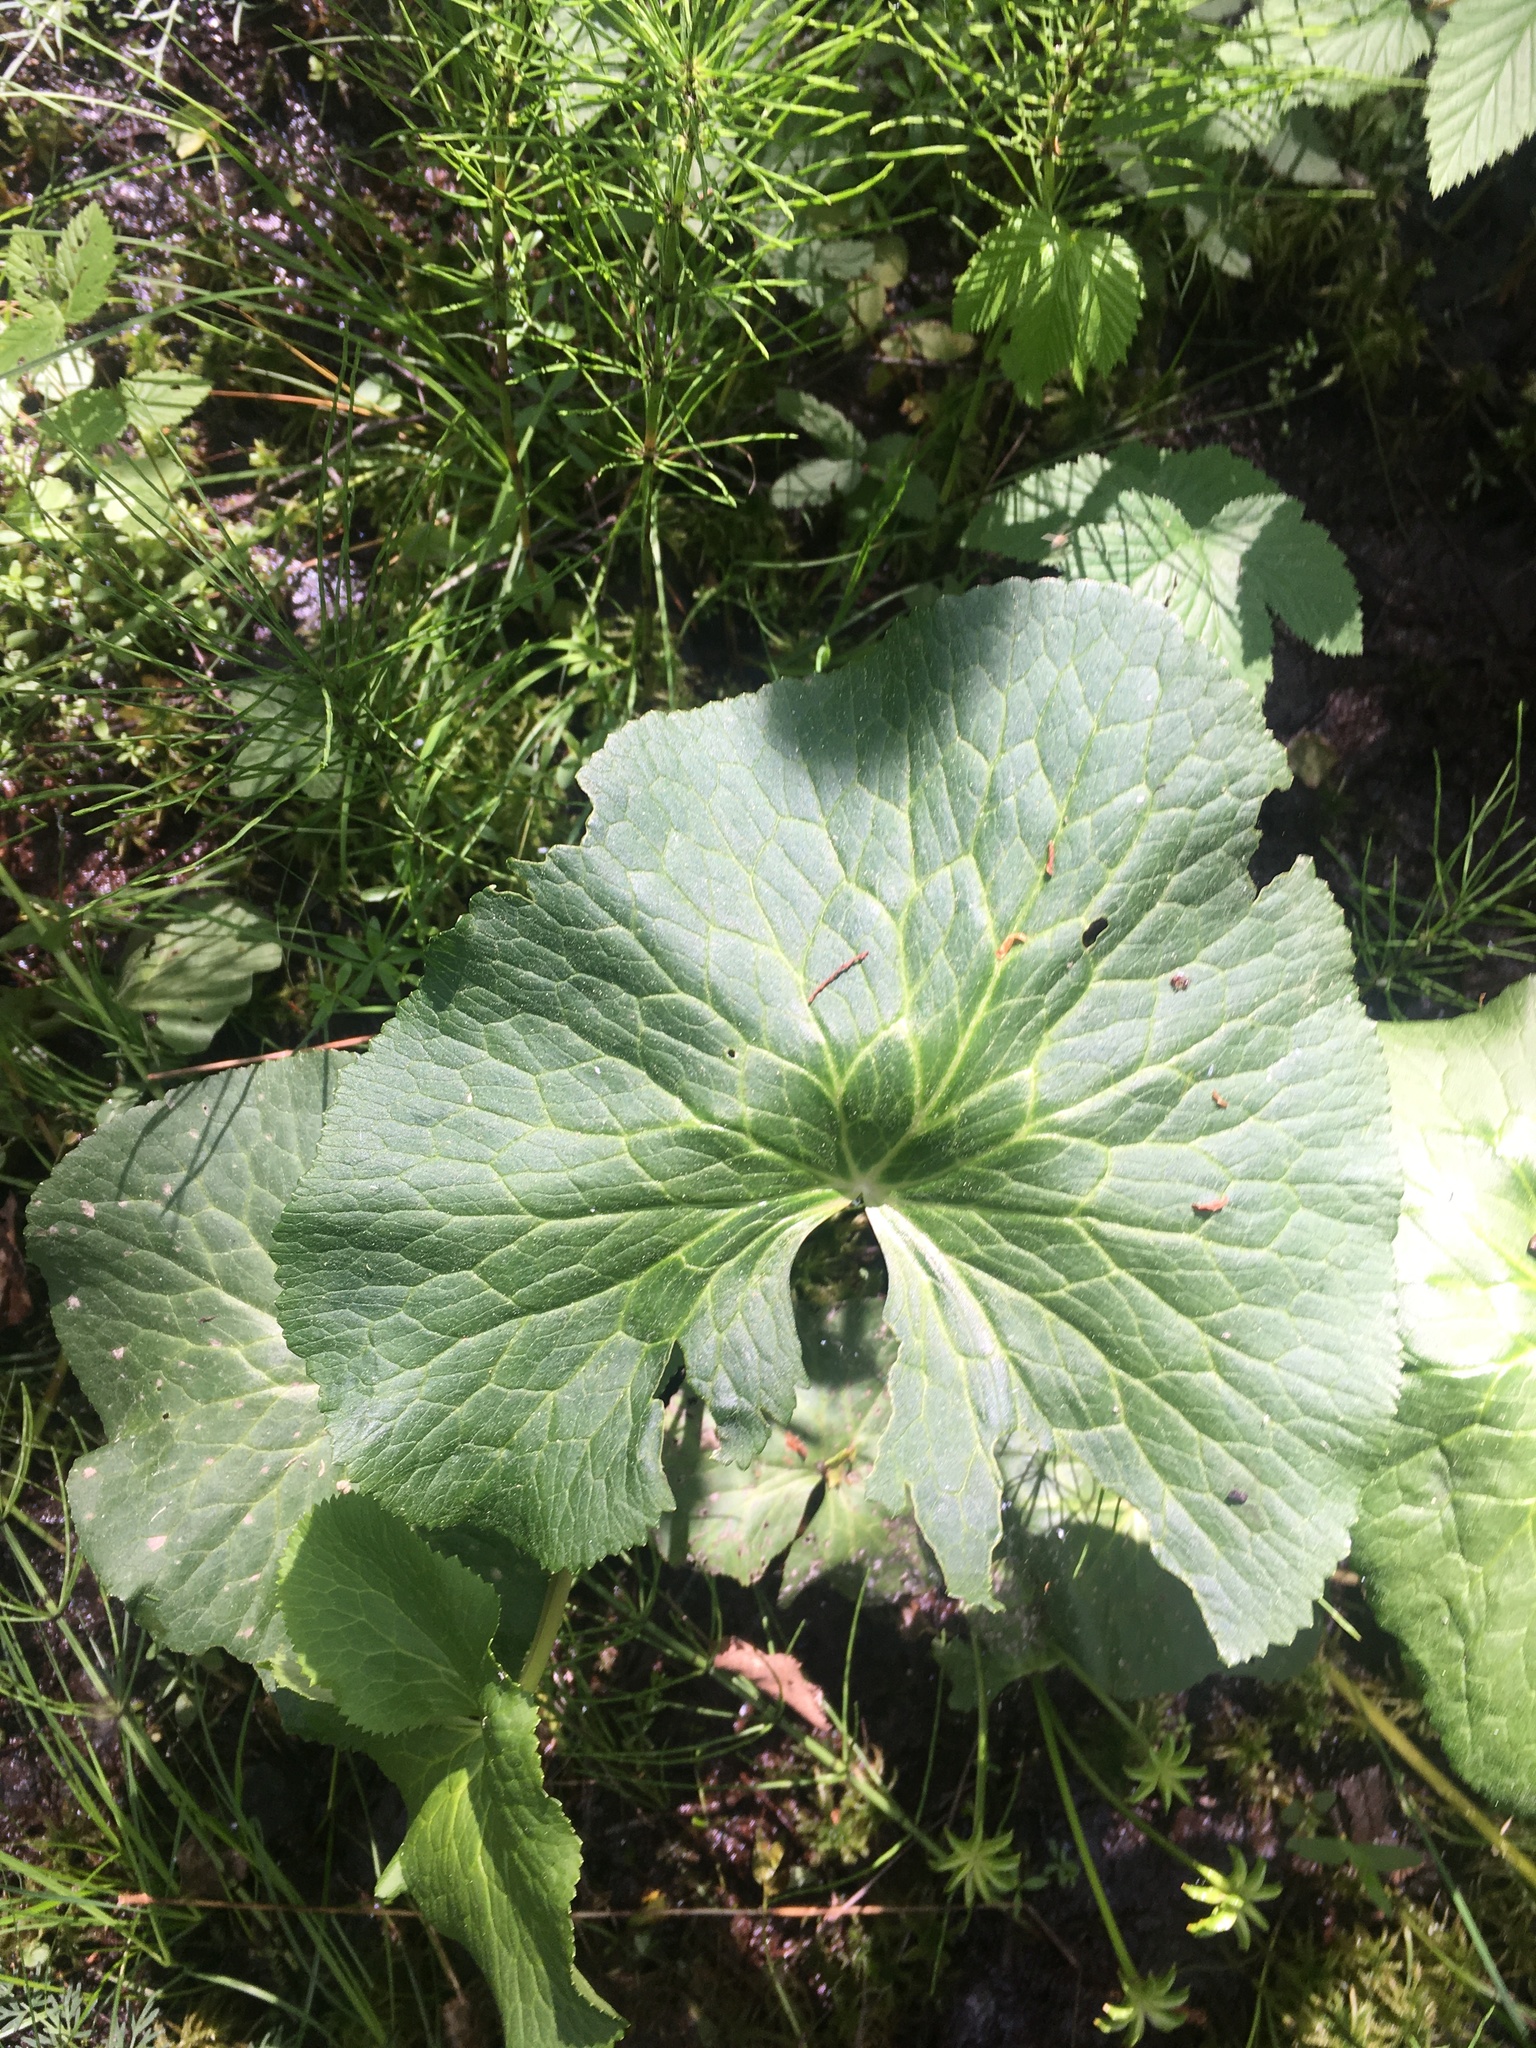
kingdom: Plantae
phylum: Tracheophyta
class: Magnoliopsida
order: Ranunculales
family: Ranunculaceae
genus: Caltha
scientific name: Caltha palustris
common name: Marsh marigold
